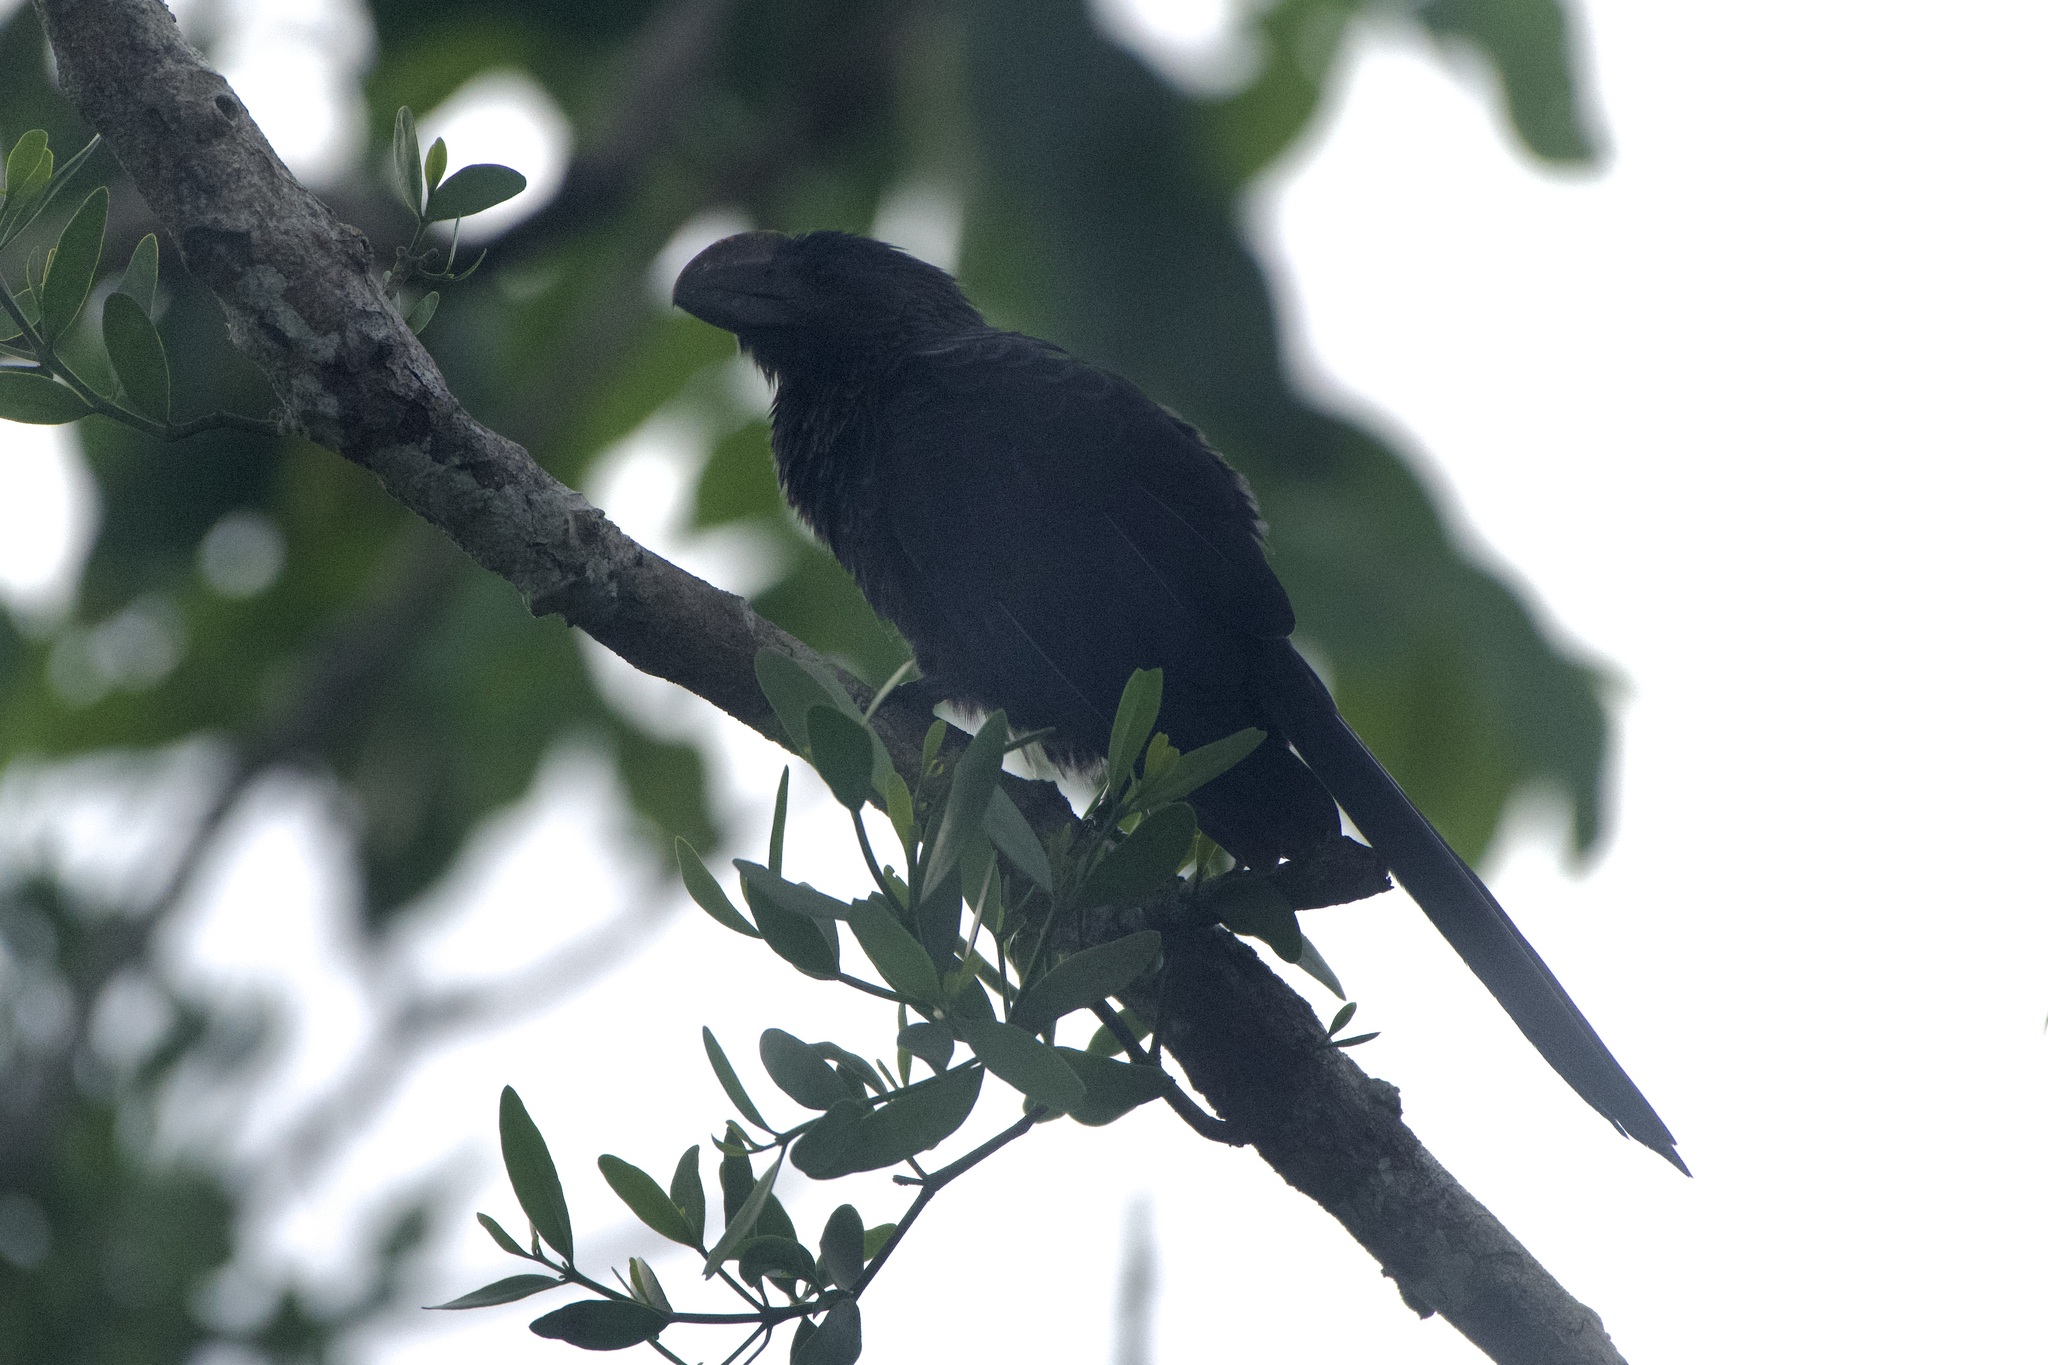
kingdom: Animalia
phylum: Chordata
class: Aves
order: Cuculiformes
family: Cuculidae
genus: Crotophaga
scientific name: Crotophaga ani
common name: Smooth-billed ani
